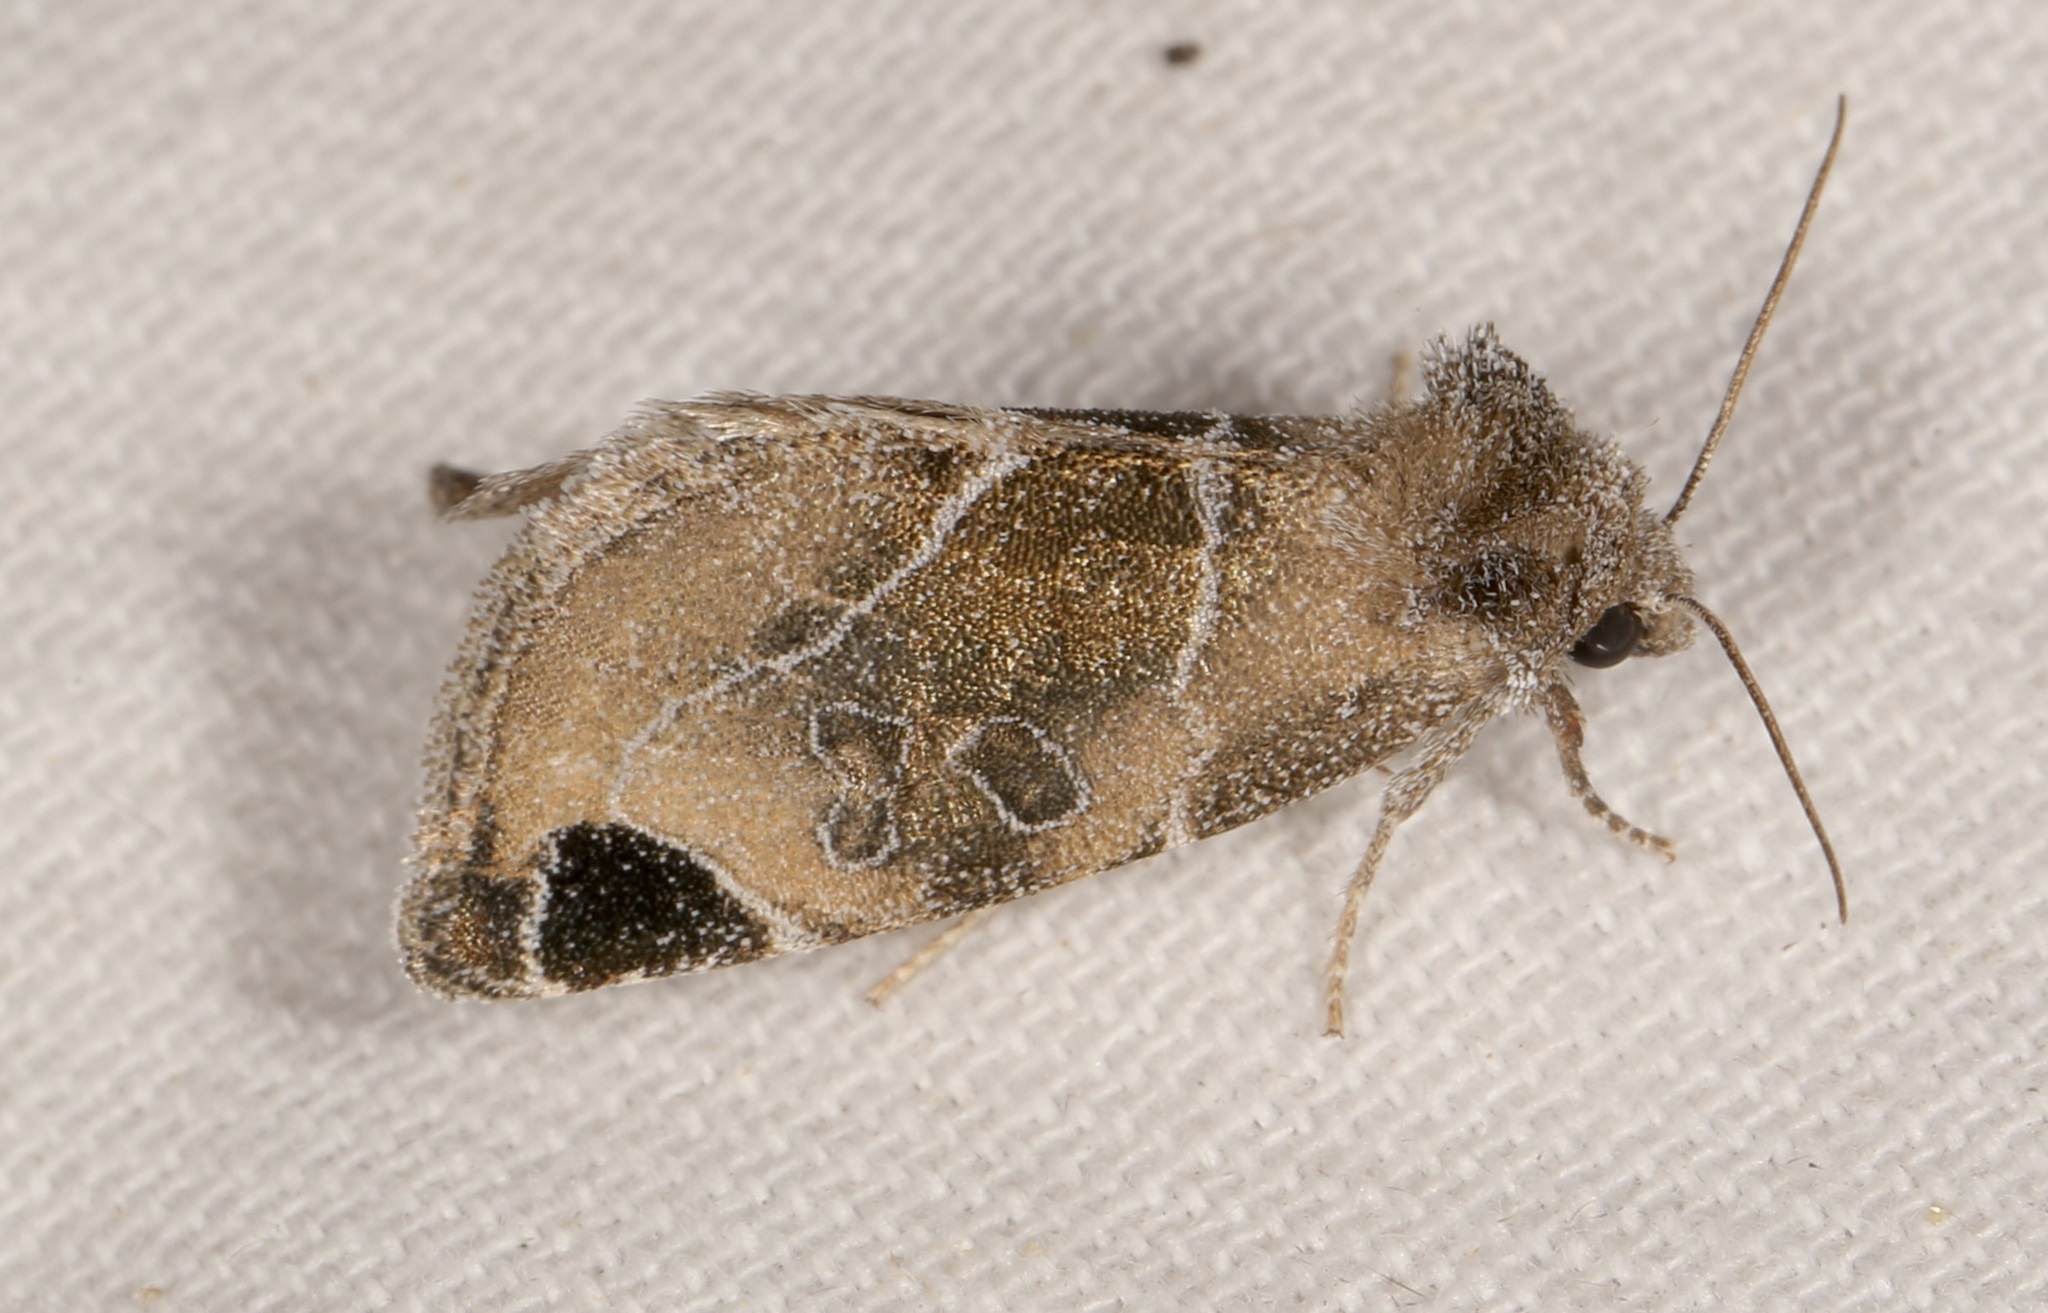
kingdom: Animalia
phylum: Arthropoda
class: Insecta
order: Lepidoptera
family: Noctuidae
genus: Plagiomimicus
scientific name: Plagiomimicus curiosum
